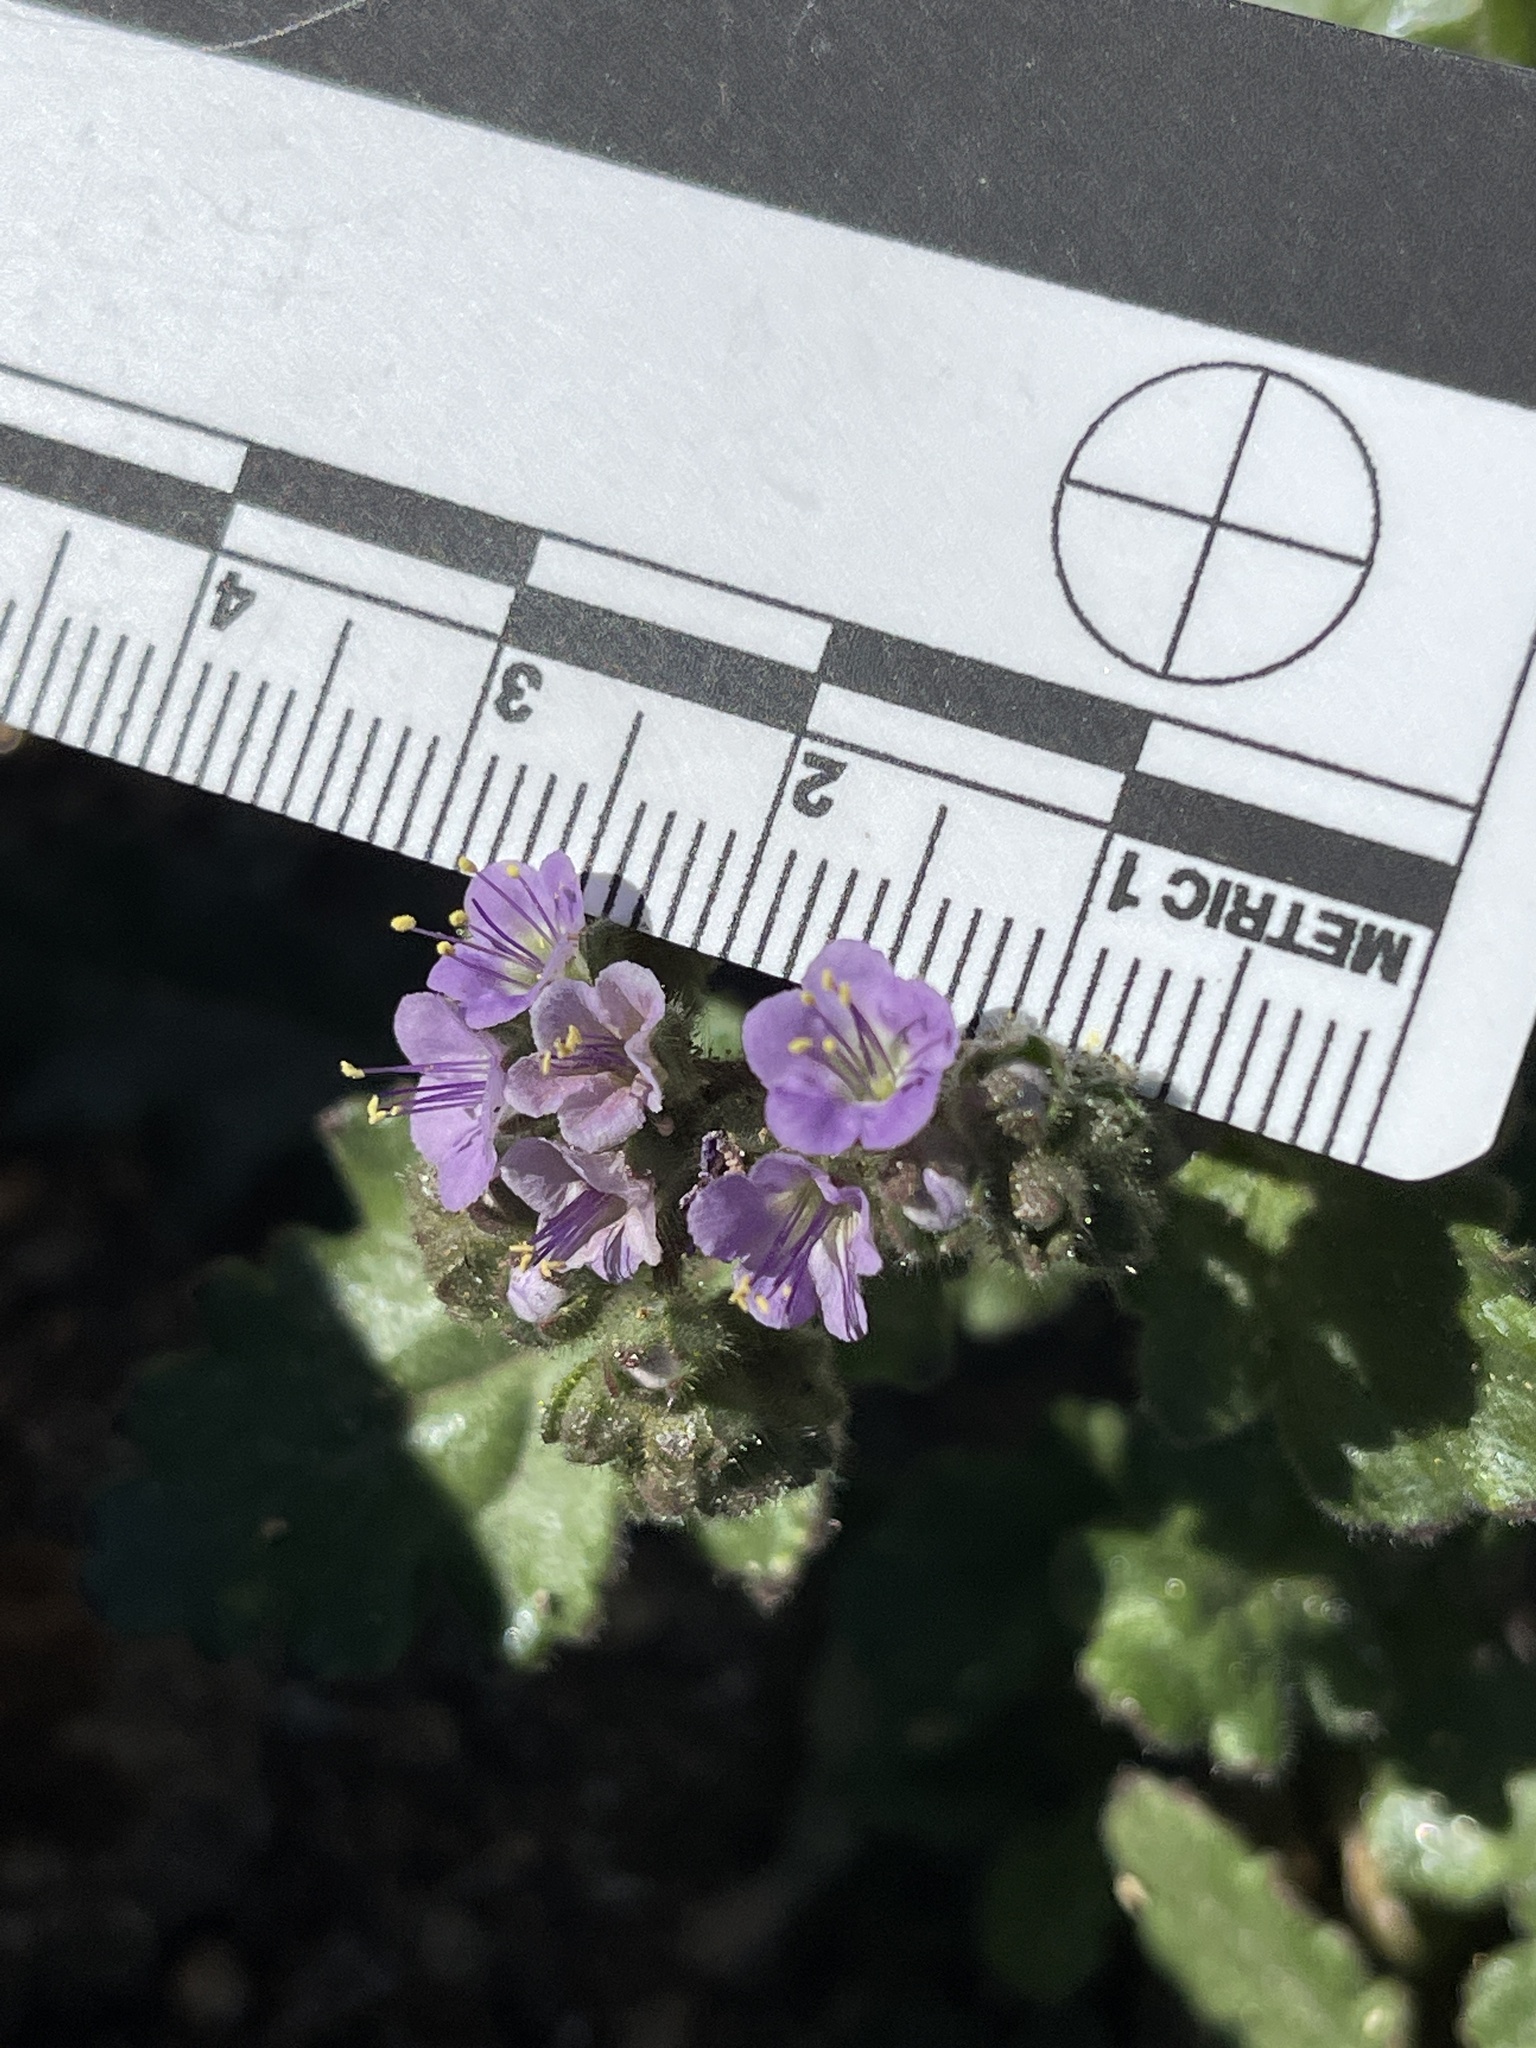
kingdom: Plantae
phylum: Tracheophyta
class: Magnoliopsida
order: Boraginales
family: Hydrophyllaceae
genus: Phacelia
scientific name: Phacelia minutiflora
